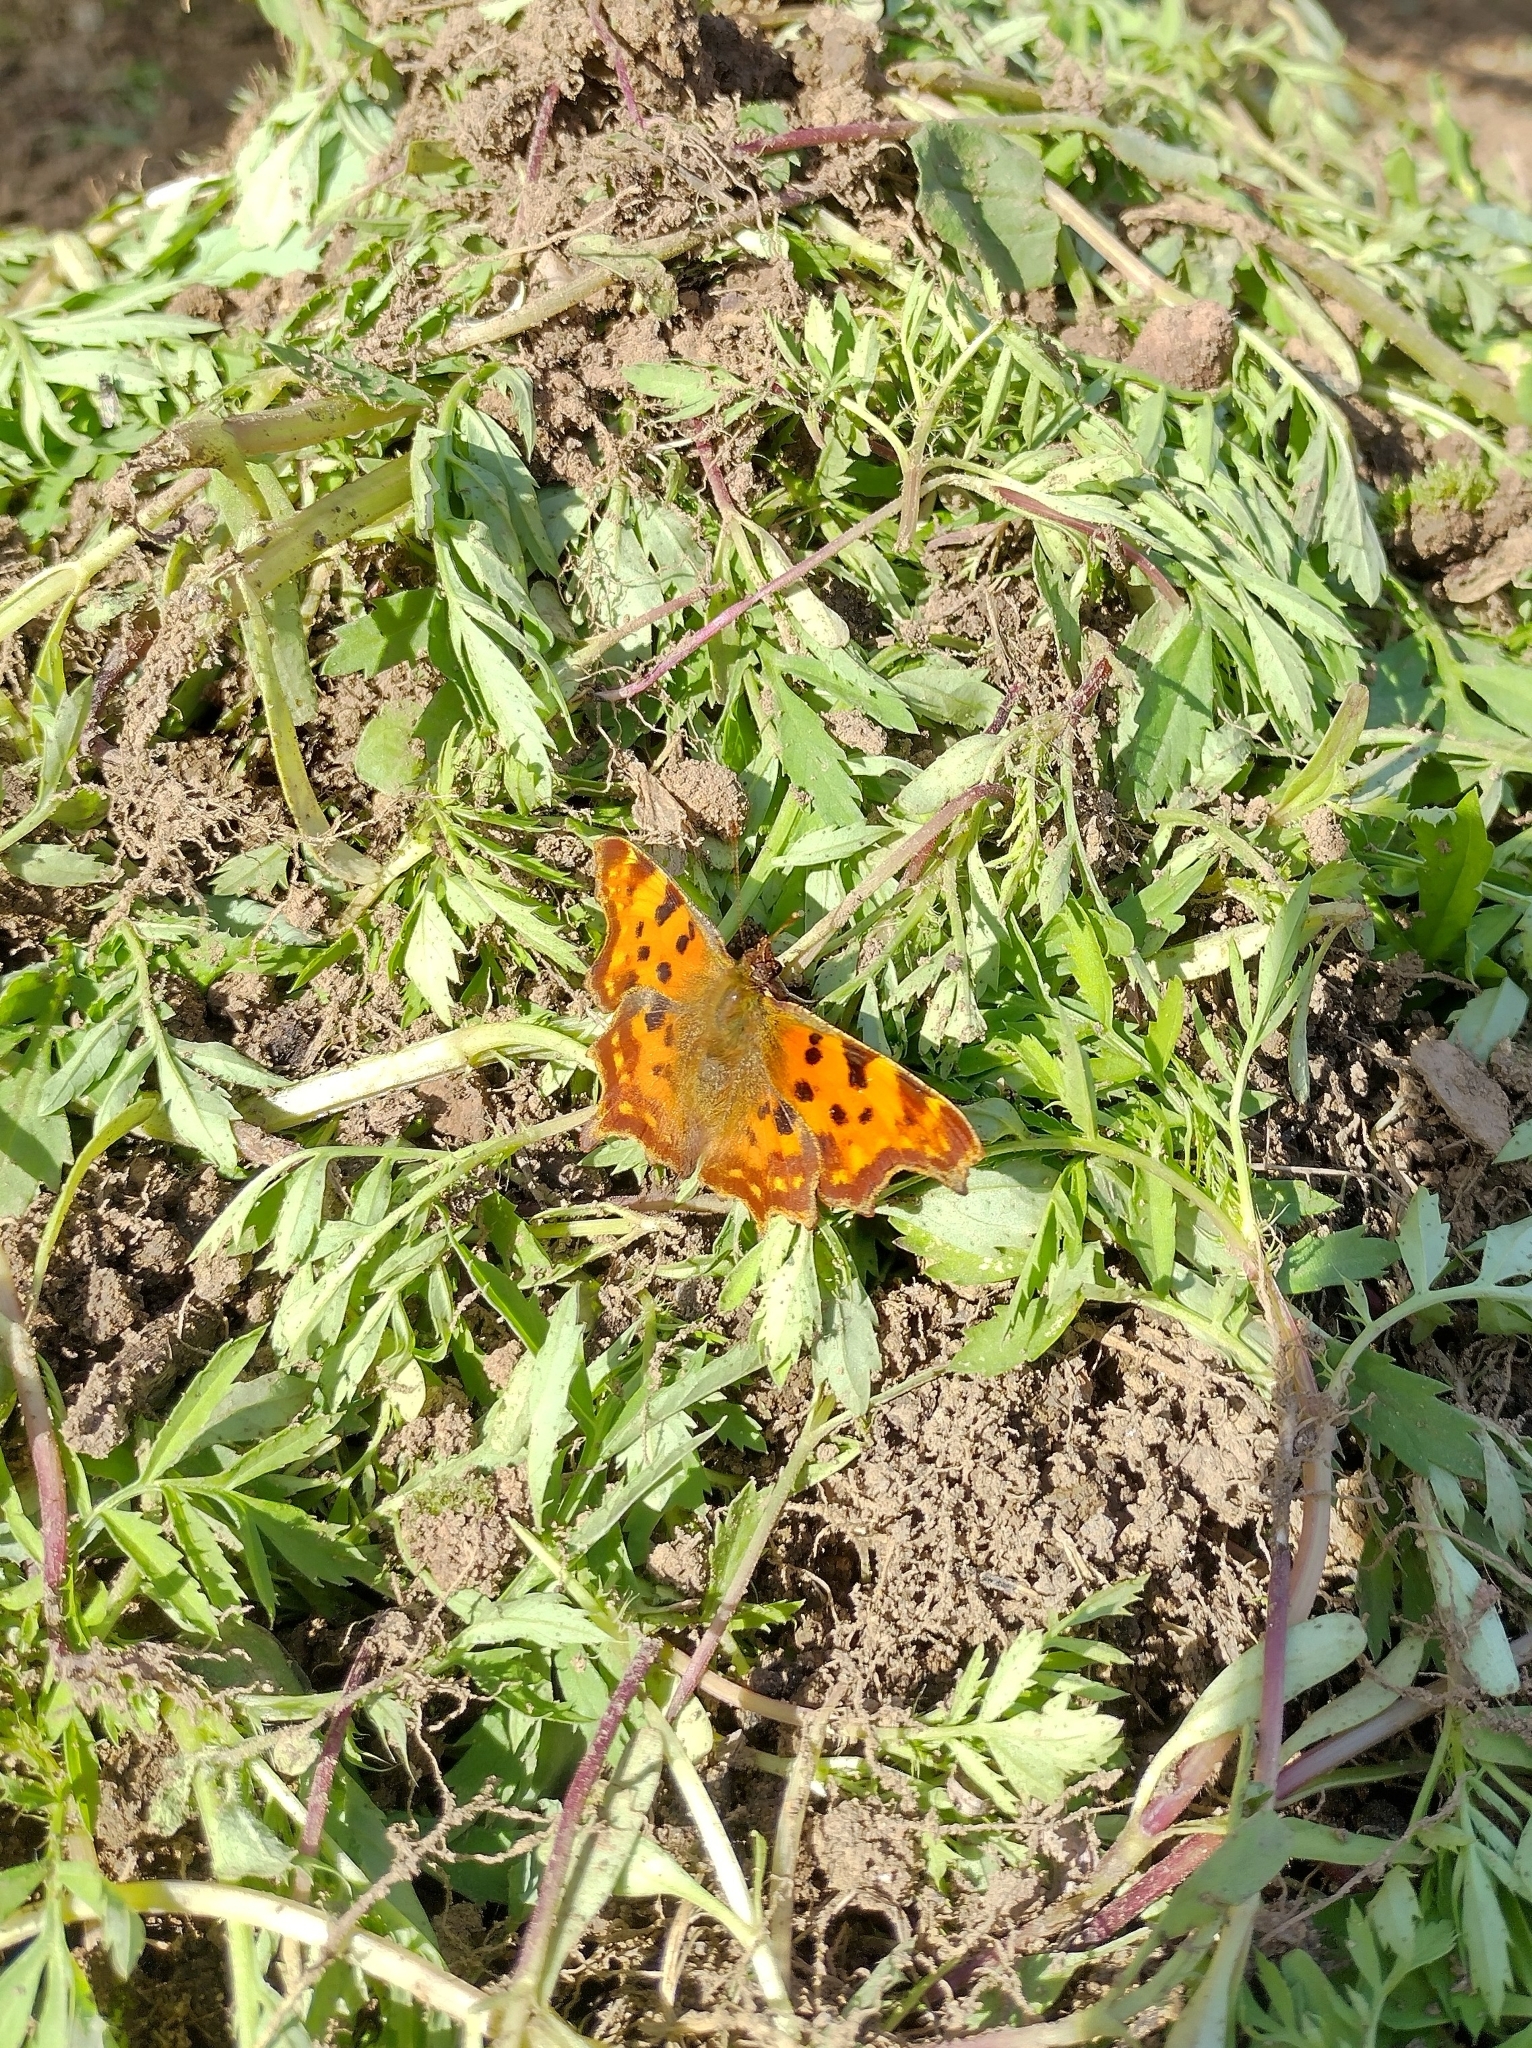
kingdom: Animalia
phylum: Arthropoda
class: Insecta
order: Lepidoptera
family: Nymphalidae
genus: Polygonia
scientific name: Polygonia c-album
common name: Comma
